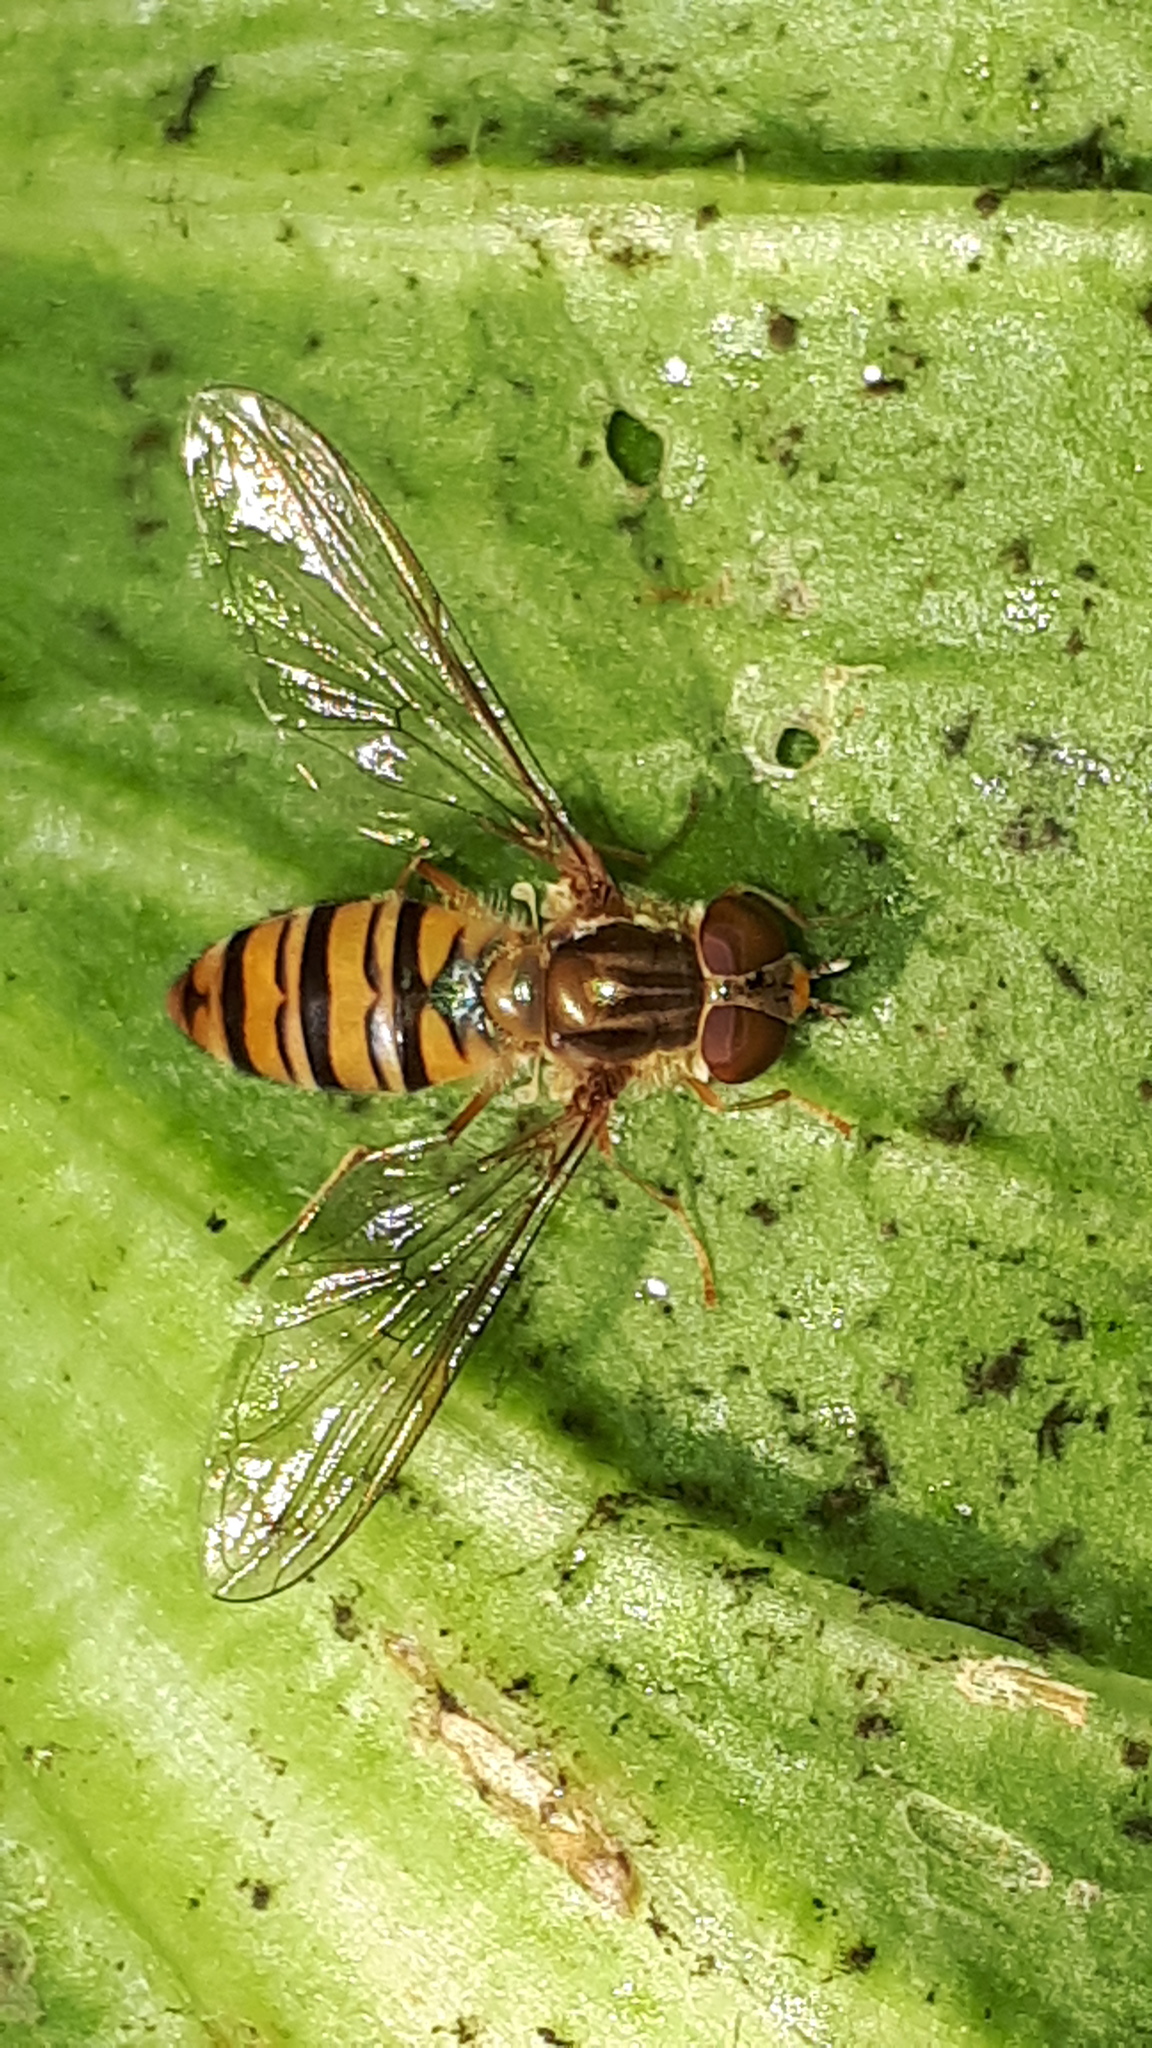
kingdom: Animalia
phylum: Arthropoda
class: Insecta
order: Diptera
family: Syrphidae
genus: Episyrphus
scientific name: Episyrphus balteatus
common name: Marmalade hoverfly
